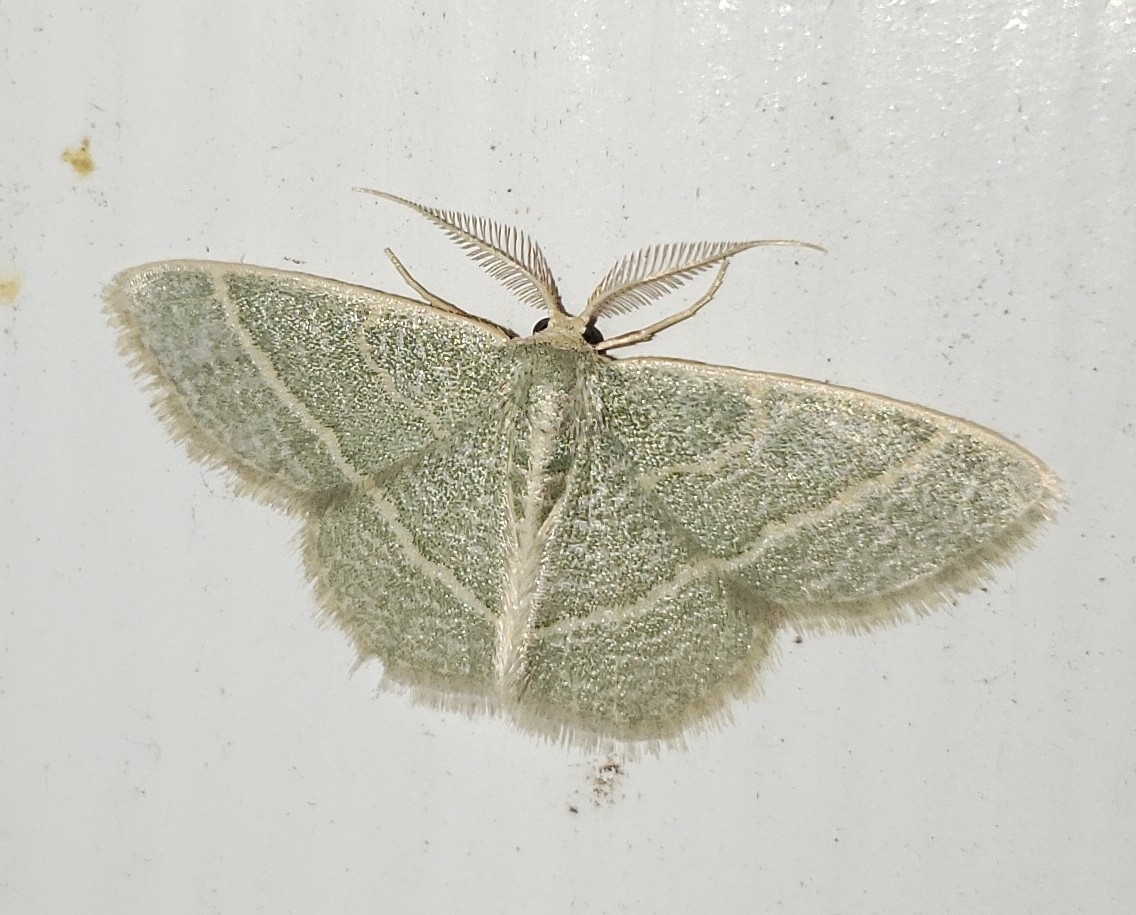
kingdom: Animalia
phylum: Arthropoda
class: Insecta
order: Lepidoptera
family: Geometridae
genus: Chlorochlamys
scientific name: Chlorochlamys chloroleucaria
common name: Blackberry looper
